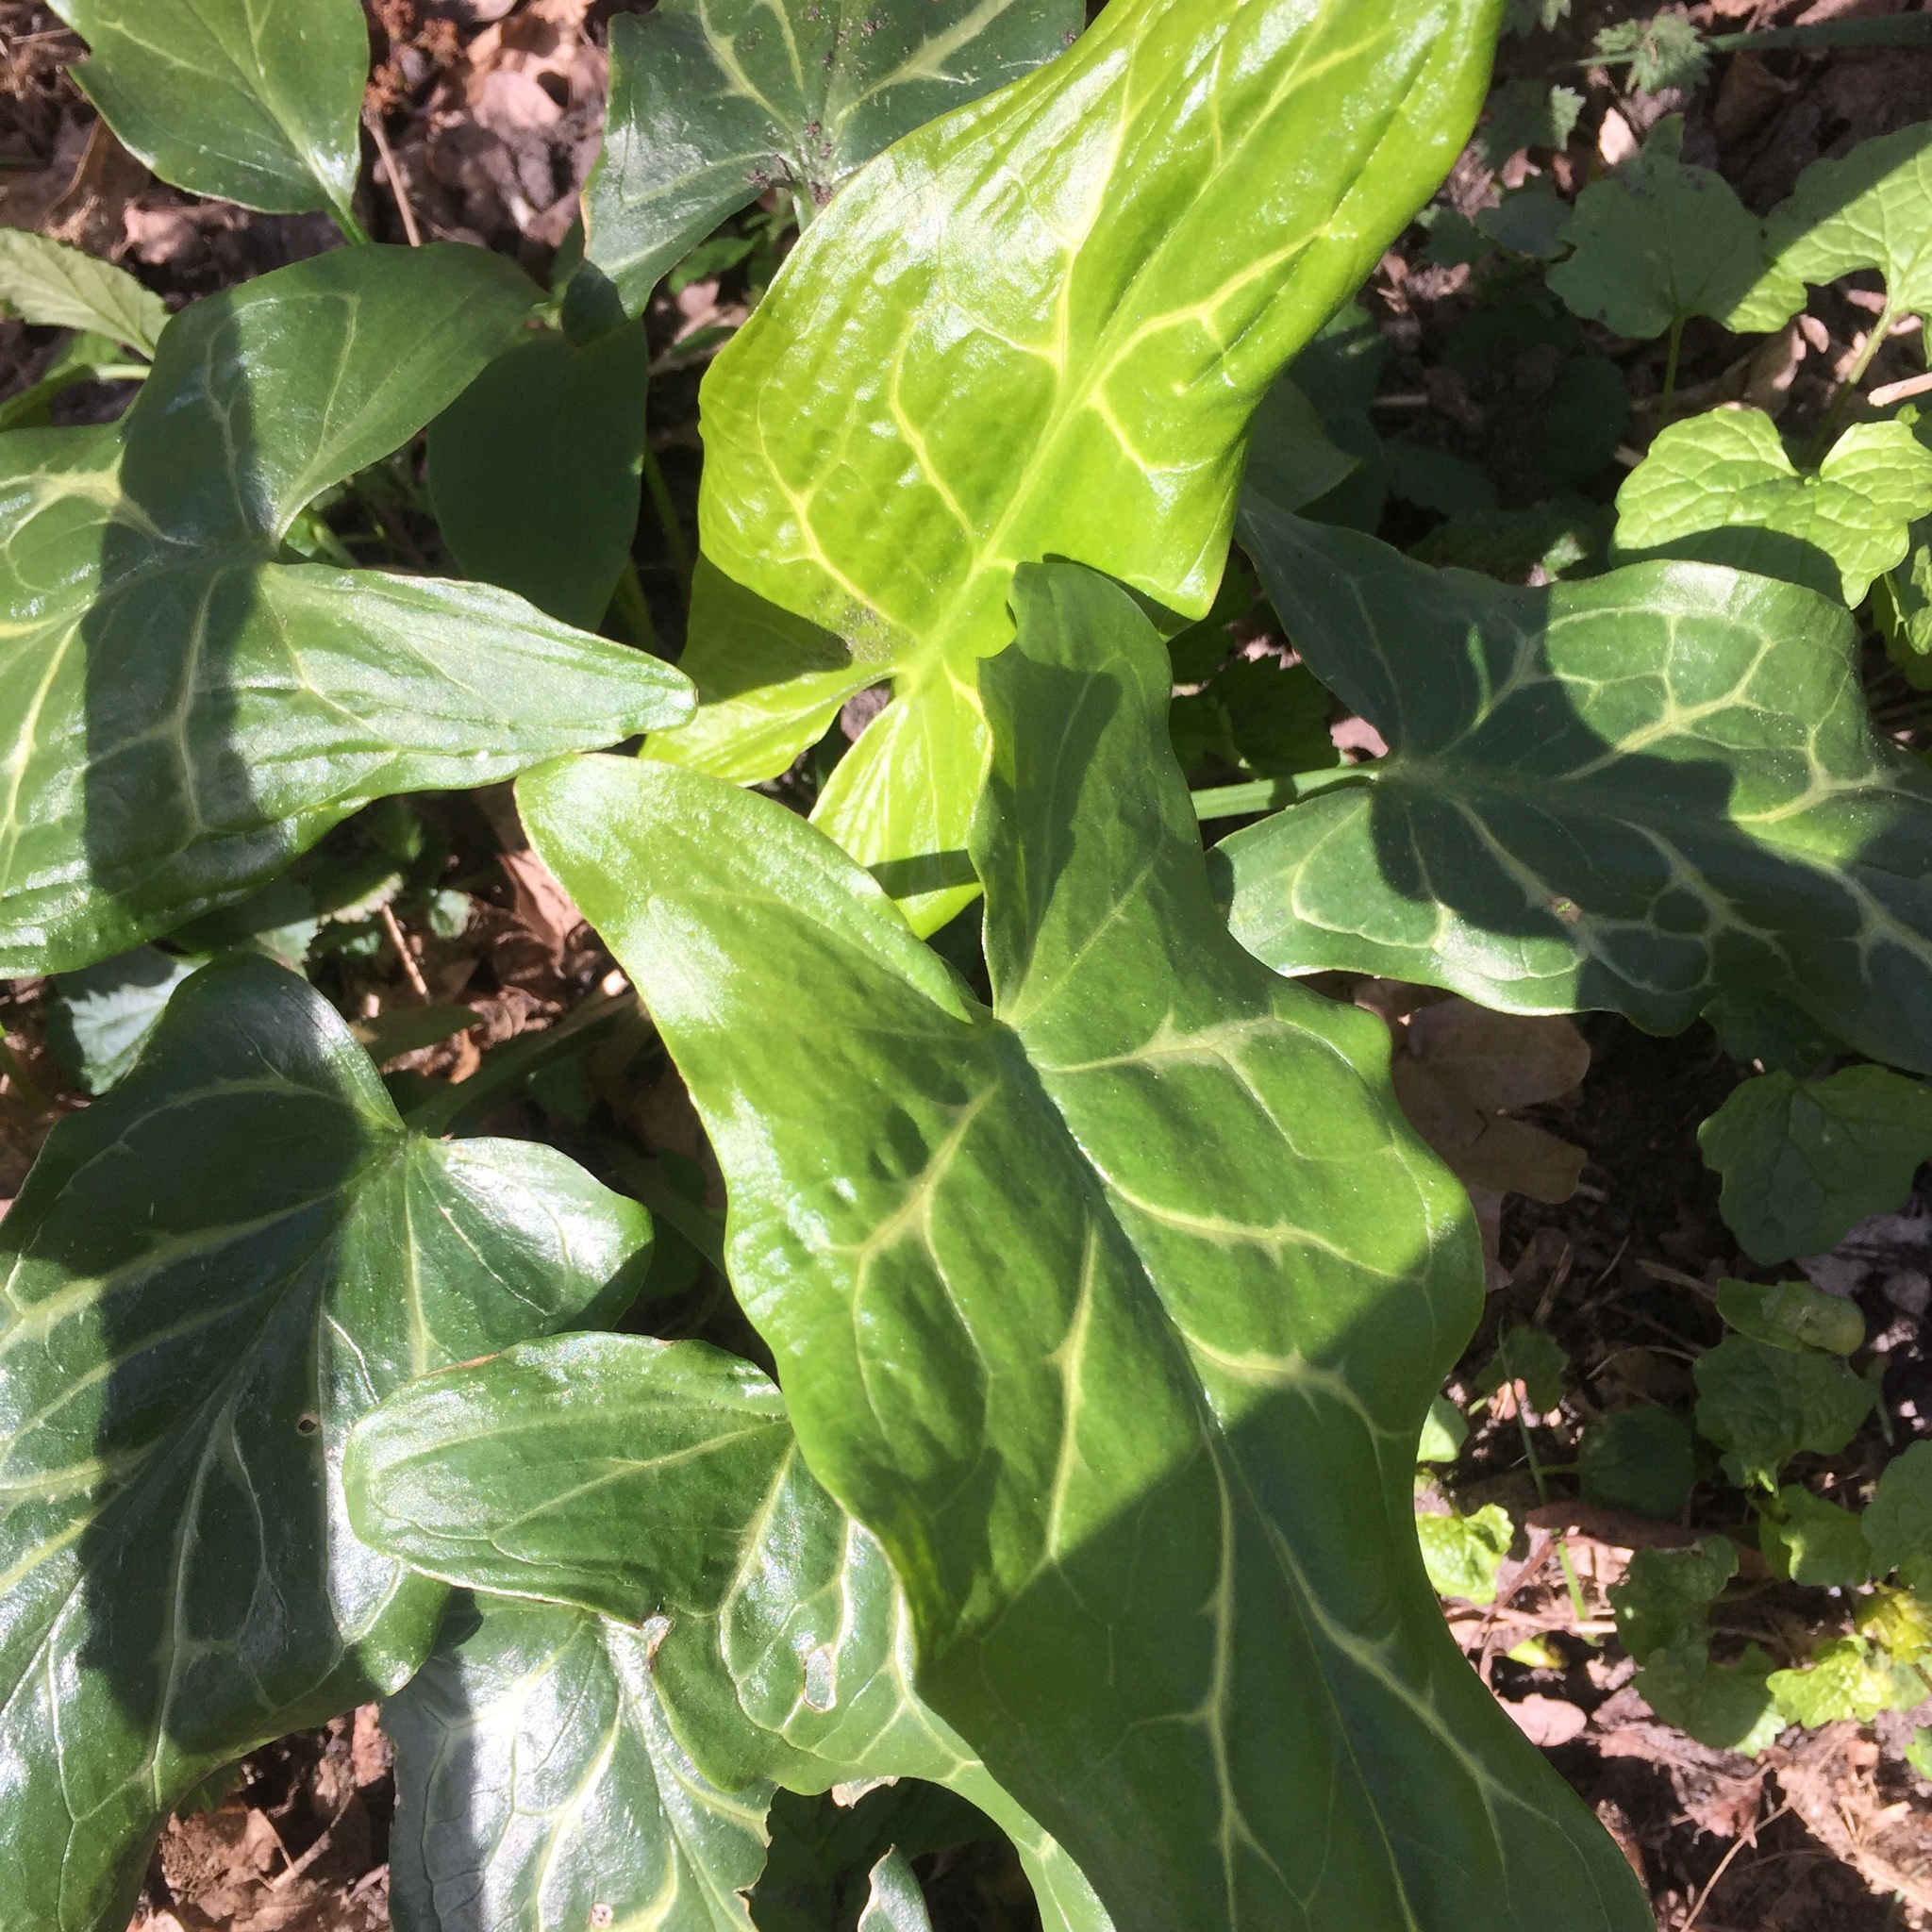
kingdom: Plantae
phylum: Tracheophyta
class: Liliopsida
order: Alismatales
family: Araceae
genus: Arum
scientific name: Arum italicum
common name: Italian lords-and-ladies
